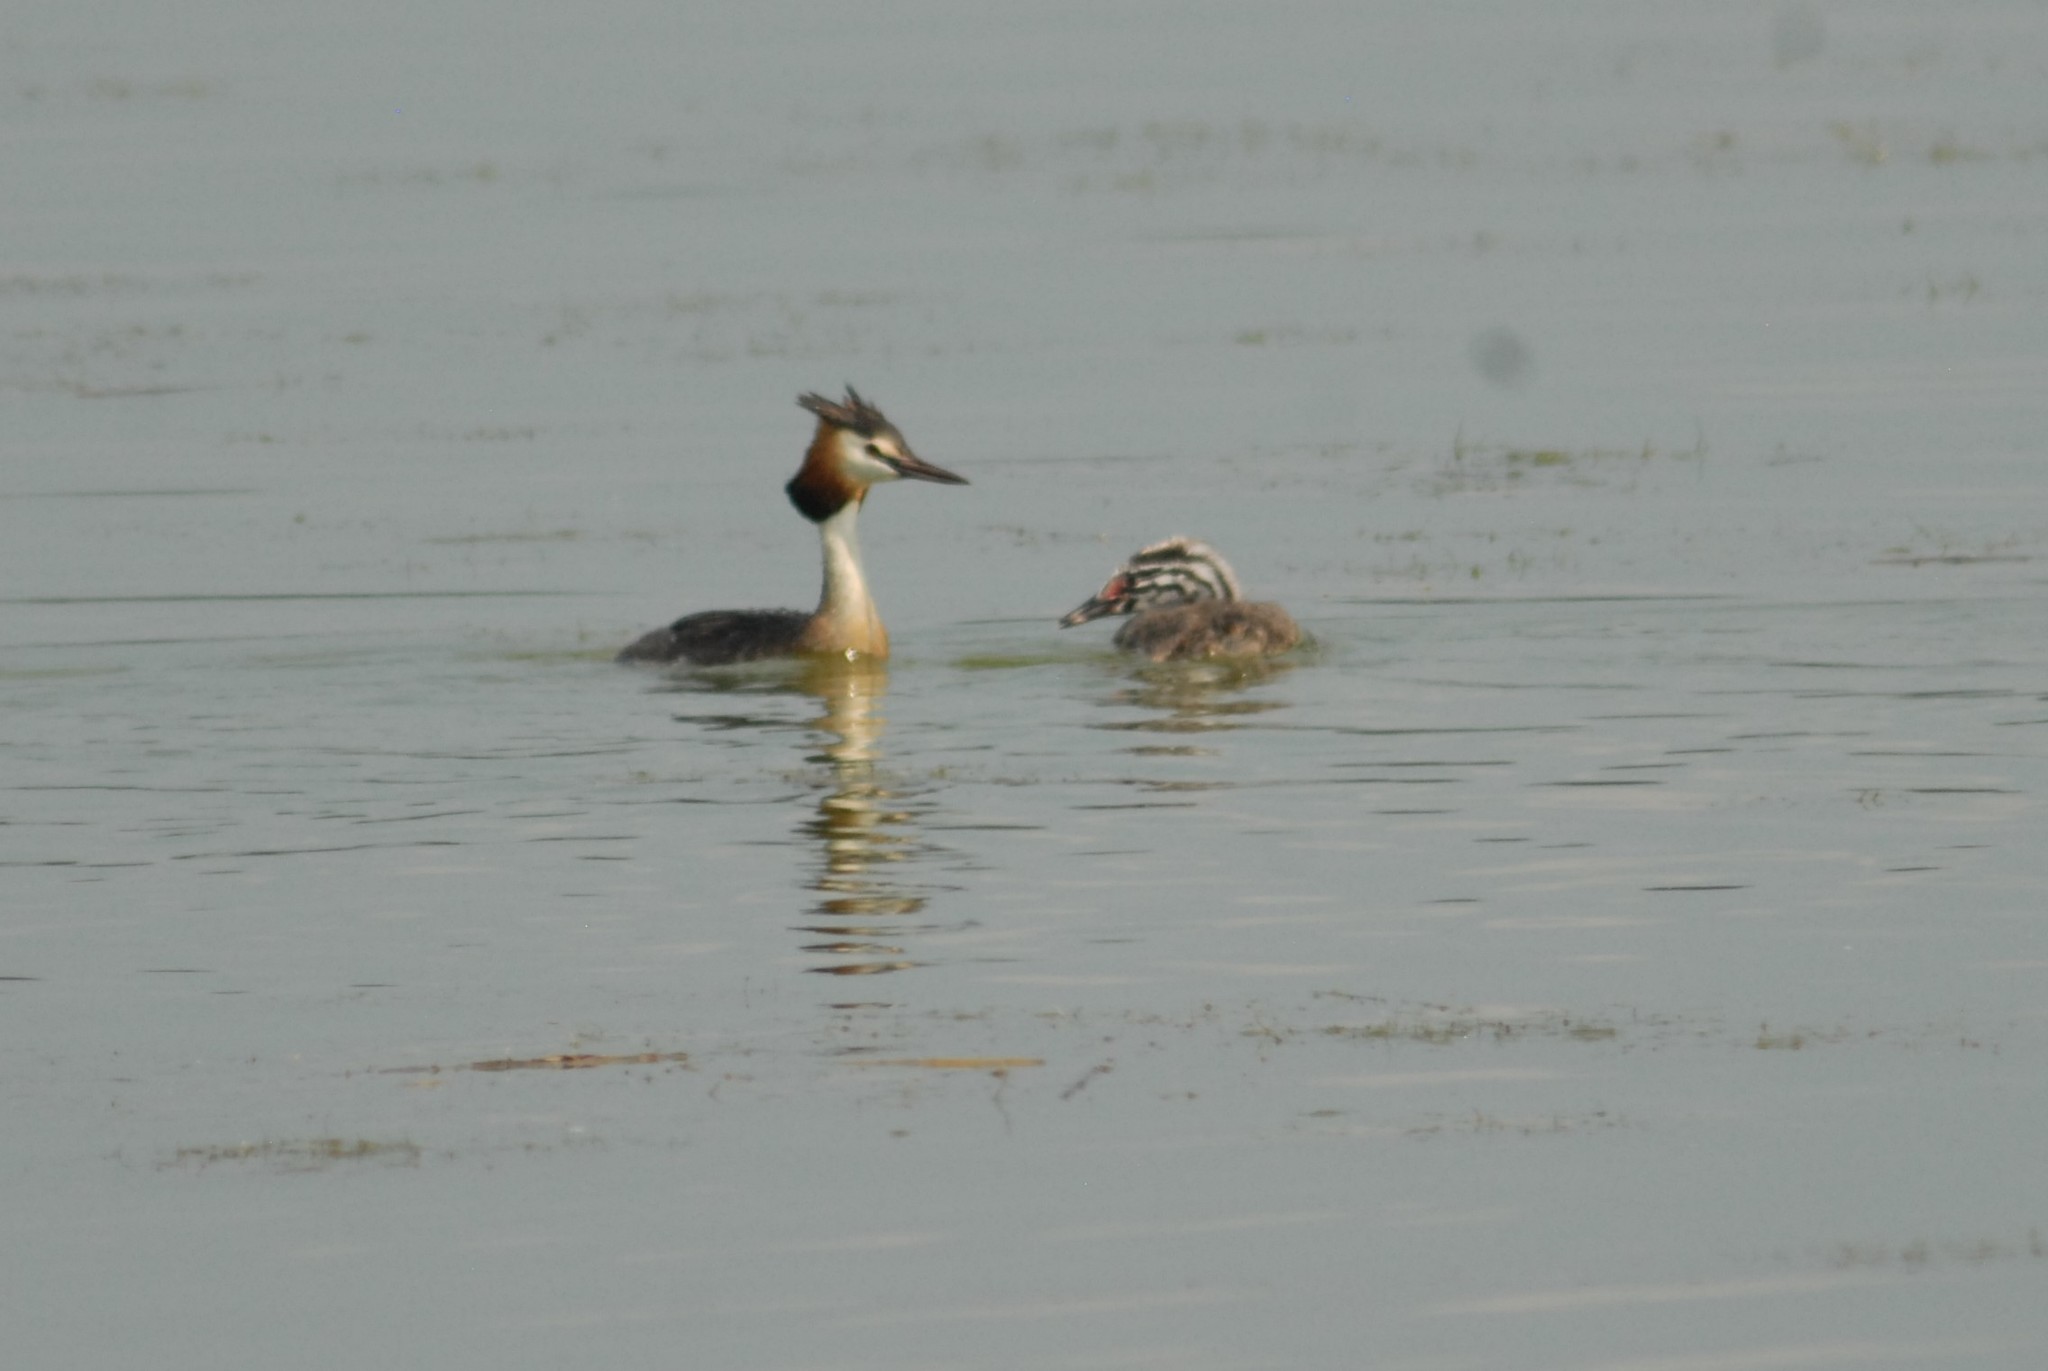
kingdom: Animalia
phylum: Chordata
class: Aves
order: Podicipediformes
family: Podicipedidae
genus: Podiceps
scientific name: Podiceps cristatus
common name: Great crested grebe
